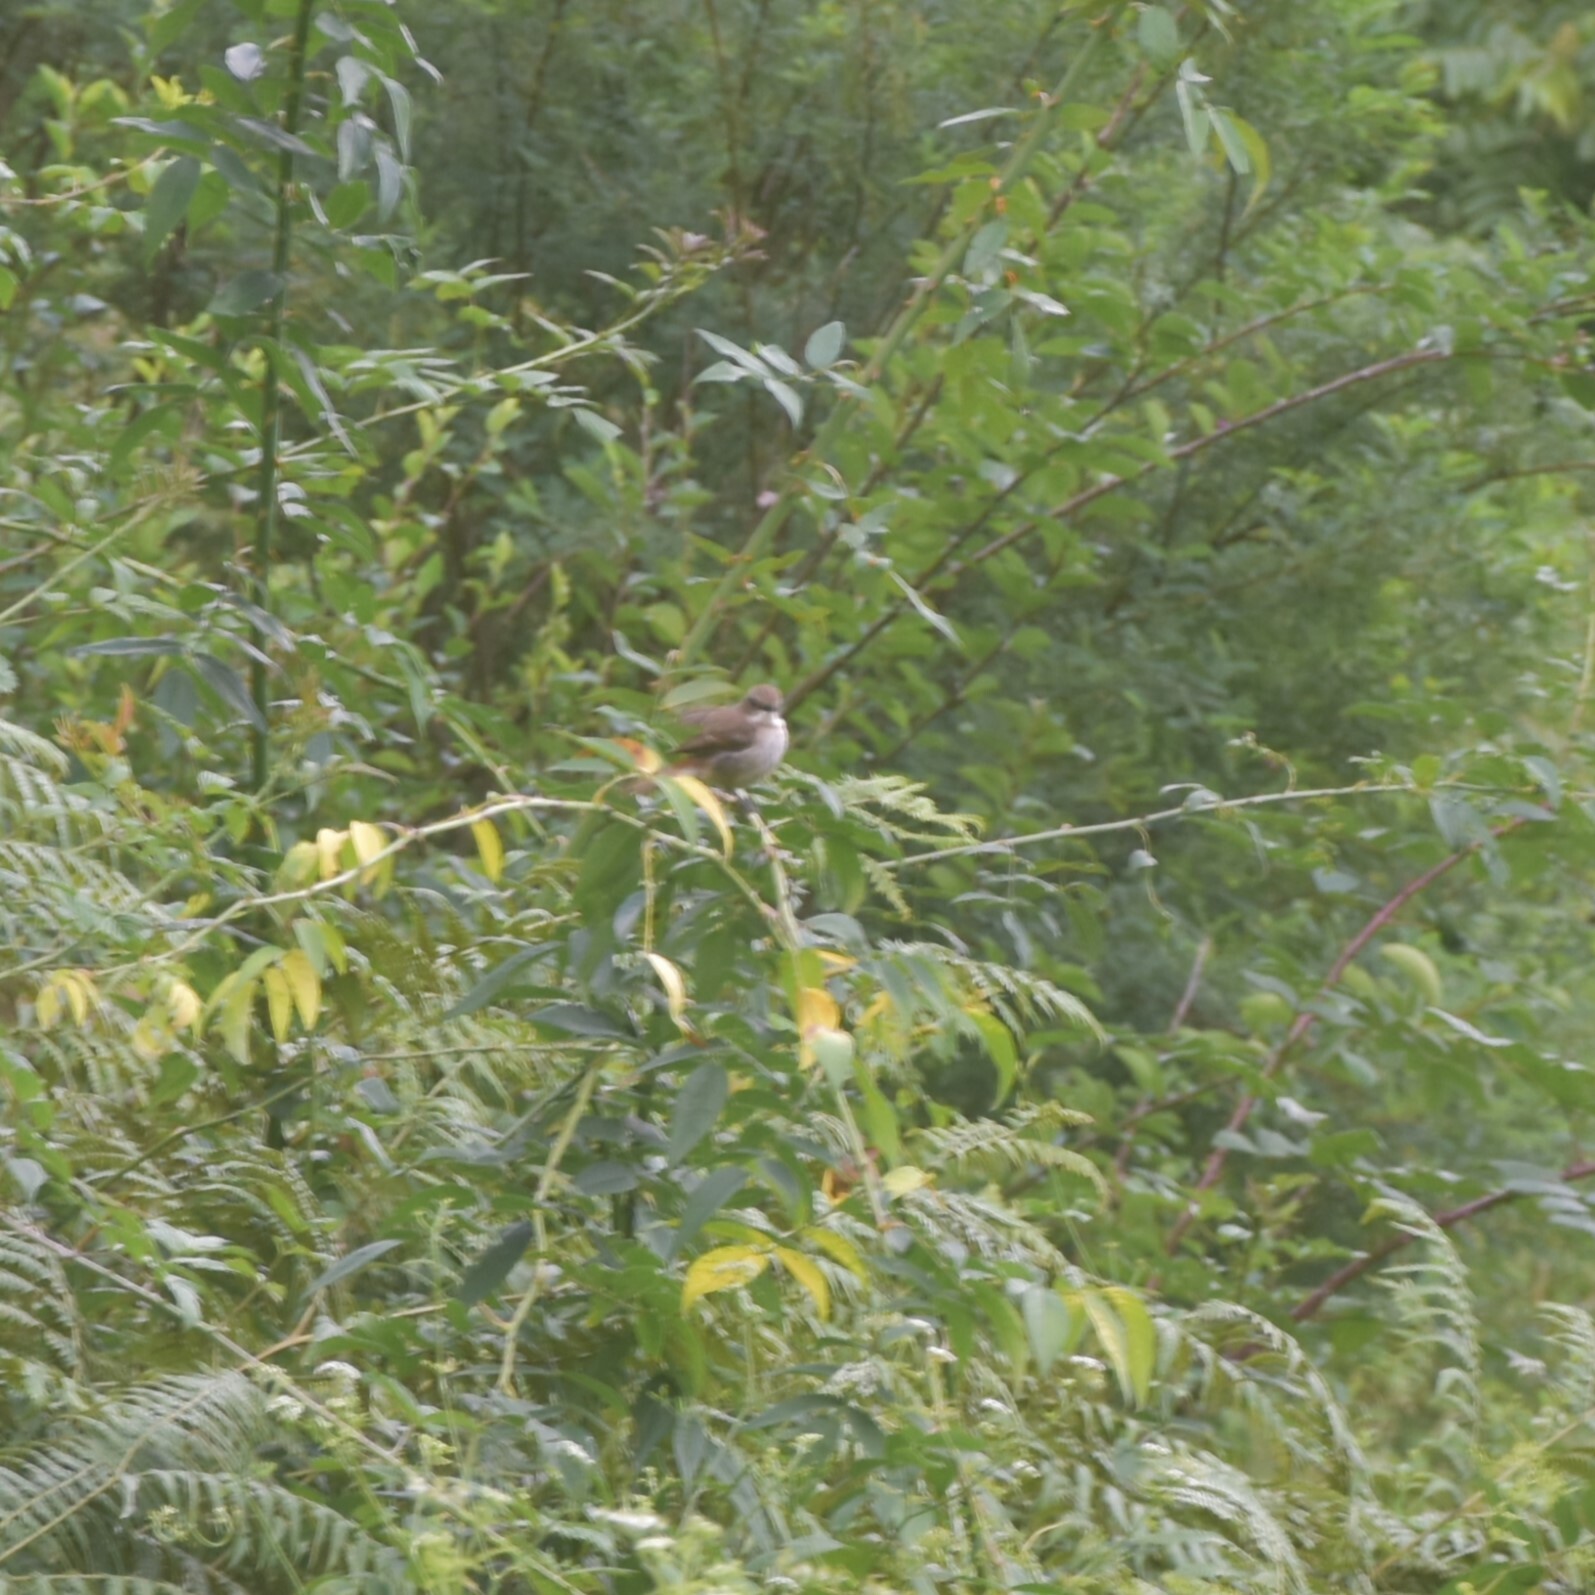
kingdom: Animalia
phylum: Chordata
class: Aves
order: Passeriformes
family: Muscicapidae
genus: Saxicola
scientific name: Saxicola ferreus
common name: Grey bush chat
